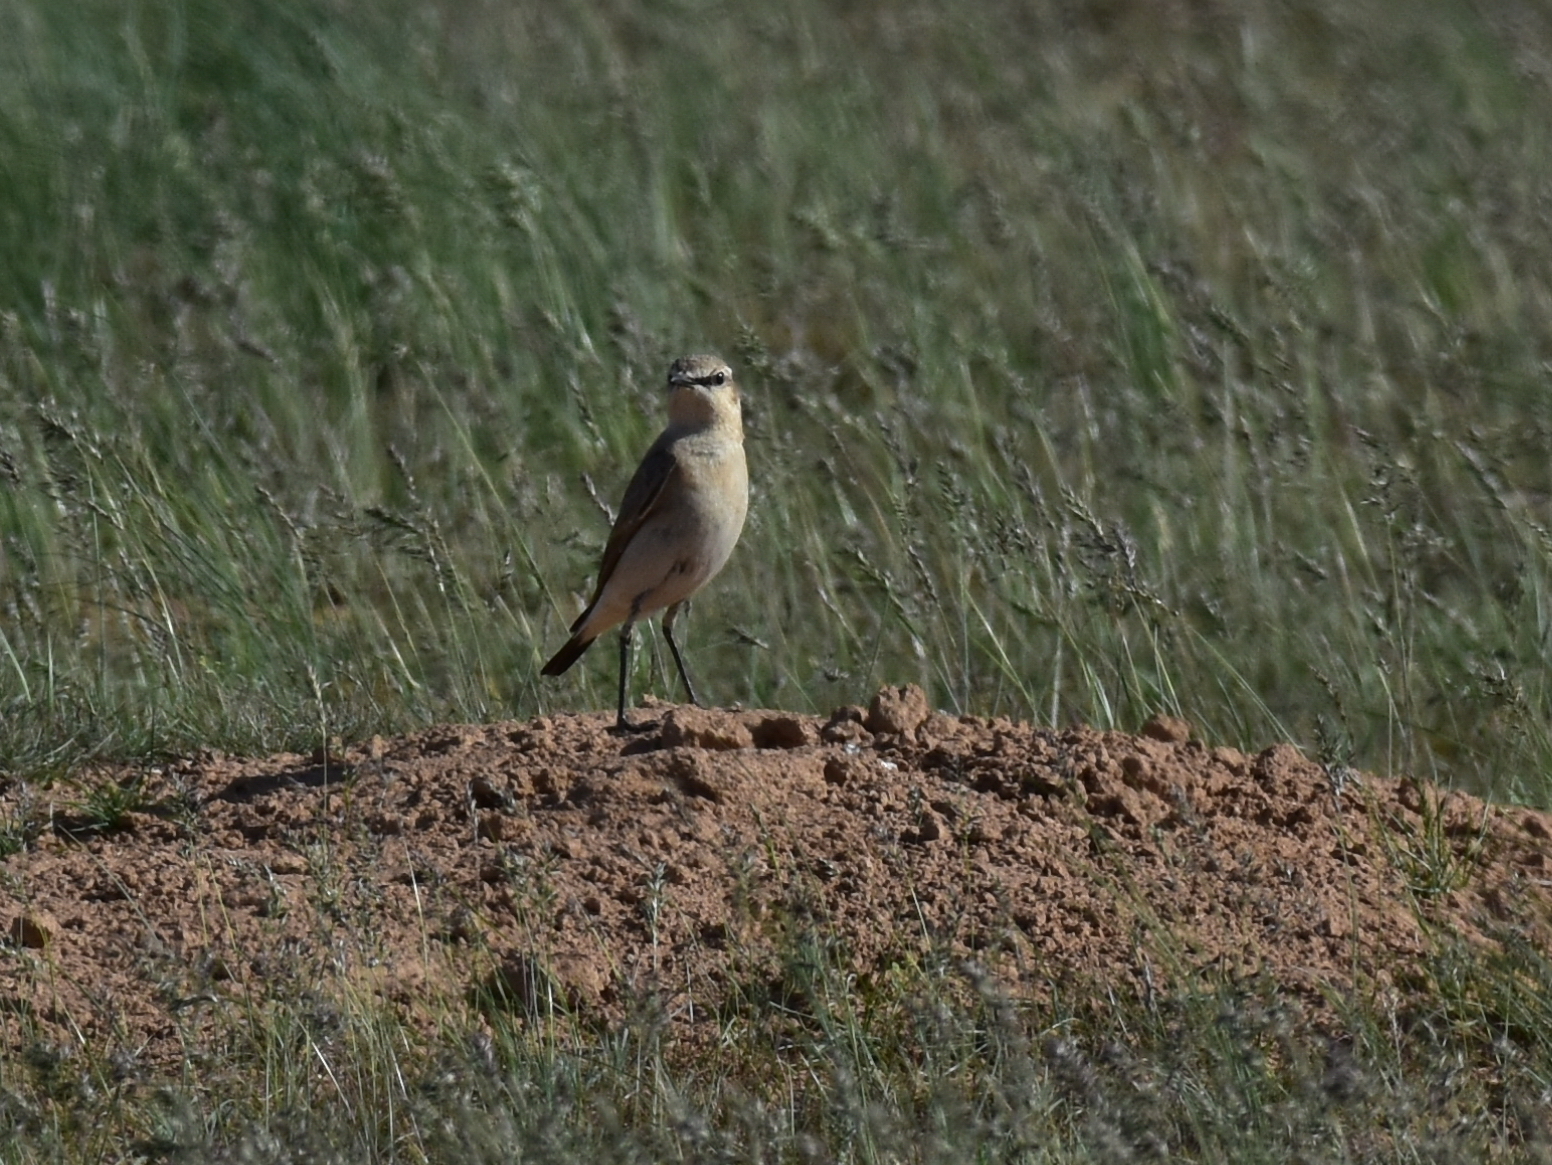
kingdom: Animalia
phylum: Chordata
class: Aves
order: Passeriformes
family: Muscicapidae
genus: Oenanthe
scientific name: Oenanthe isabellina
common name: Isabelline wheatear
